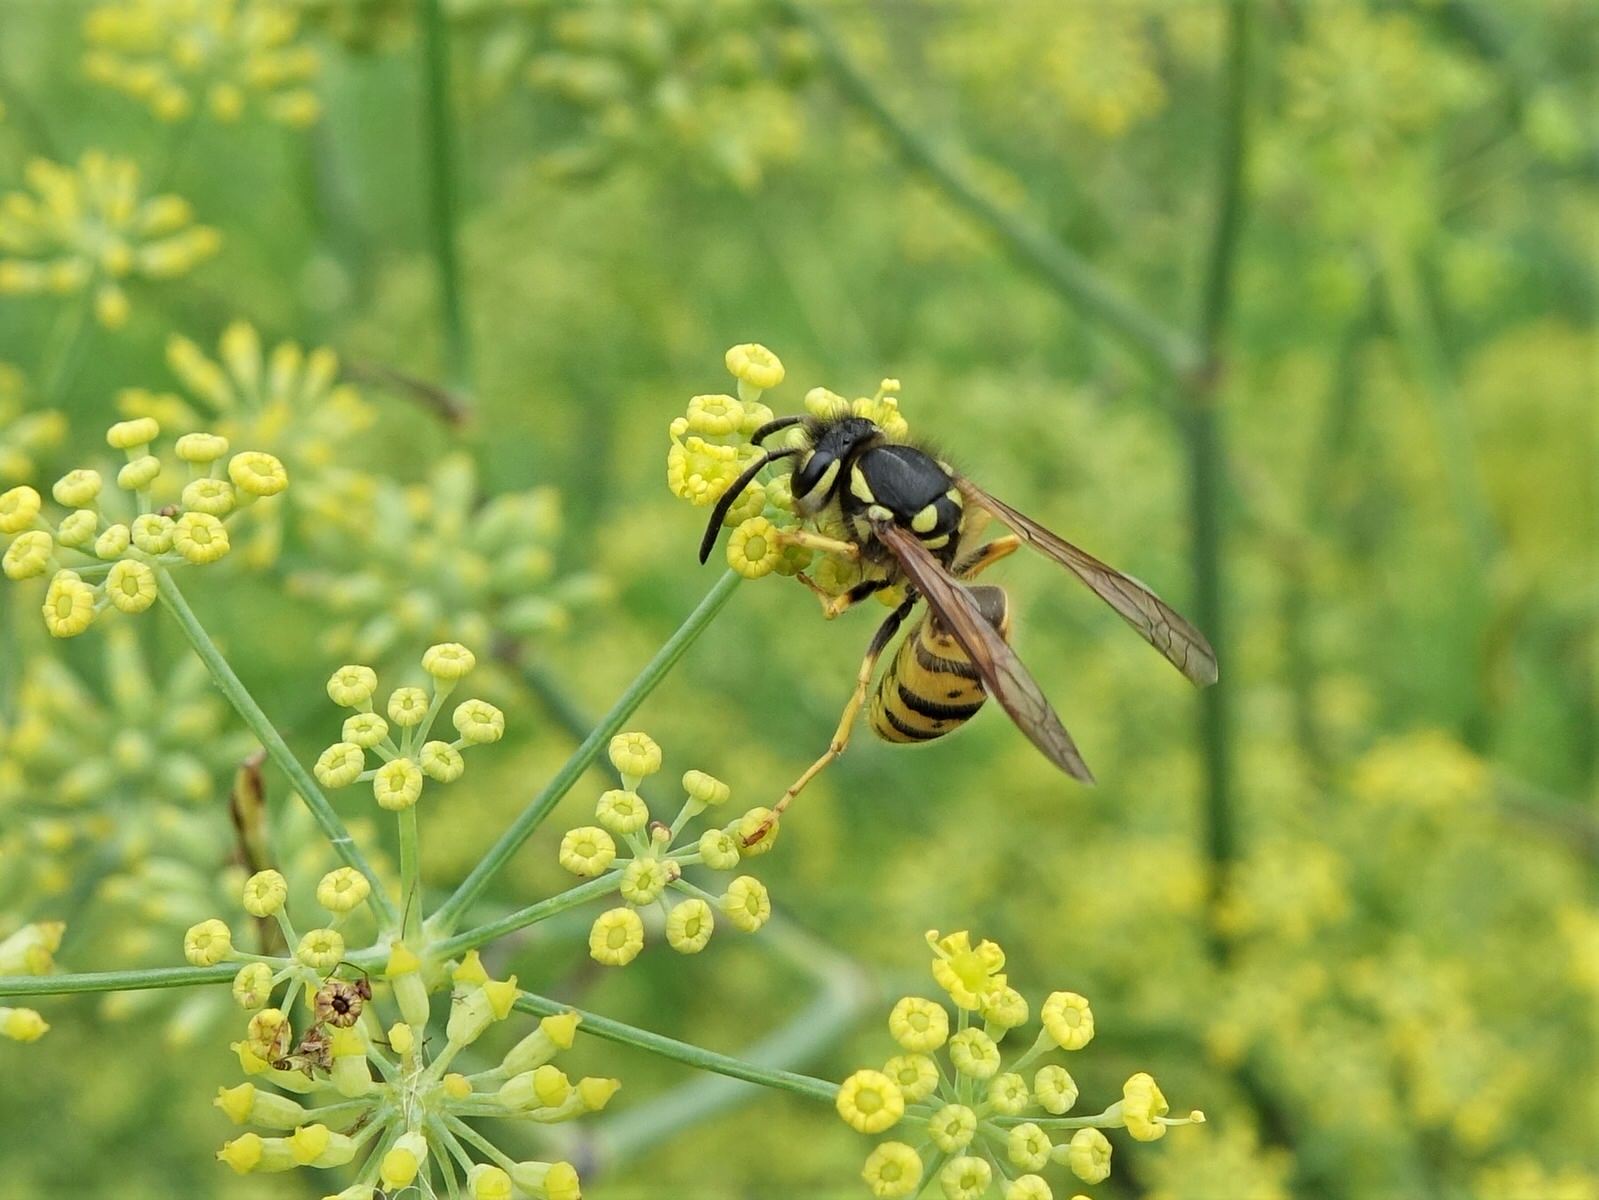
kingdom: Animalia
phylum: Arthropoda
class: Insecta
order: Hymenoptera
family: Vespidae
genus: Vespula
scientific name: Vespula germanica
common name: German wasp
